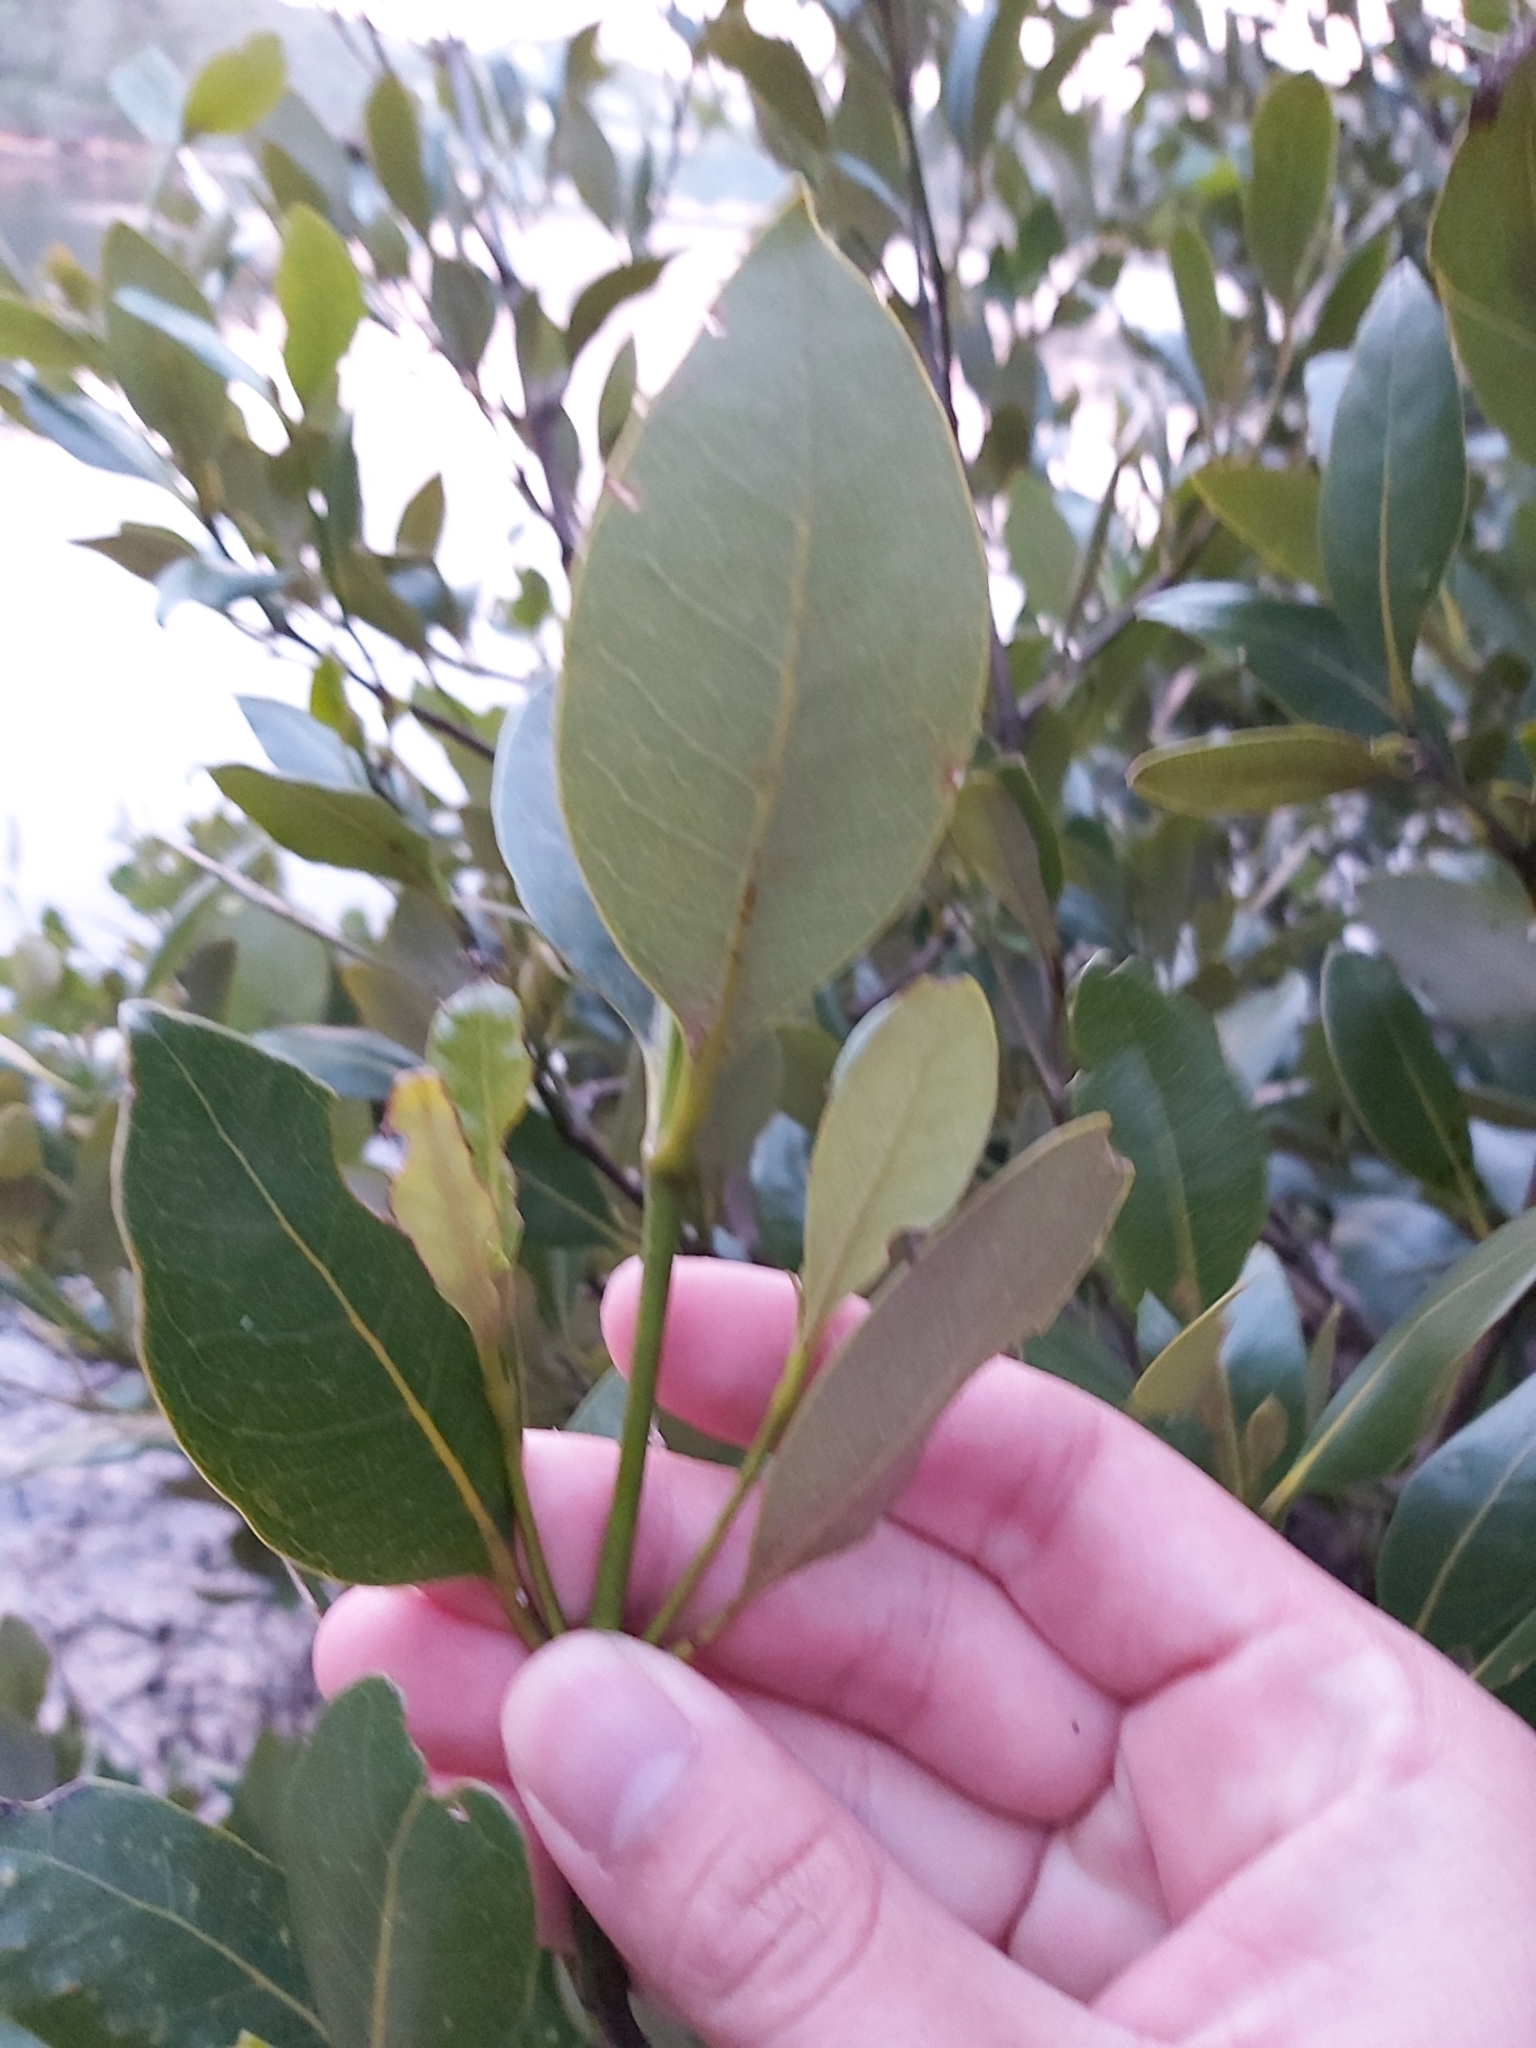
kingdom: Plantae
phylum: Tracheophyta
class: Magnoliopsida
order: Lamiales
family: Acanthaceae
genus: Avicennia
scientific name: Avicennia marina
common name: Gray mangrove
